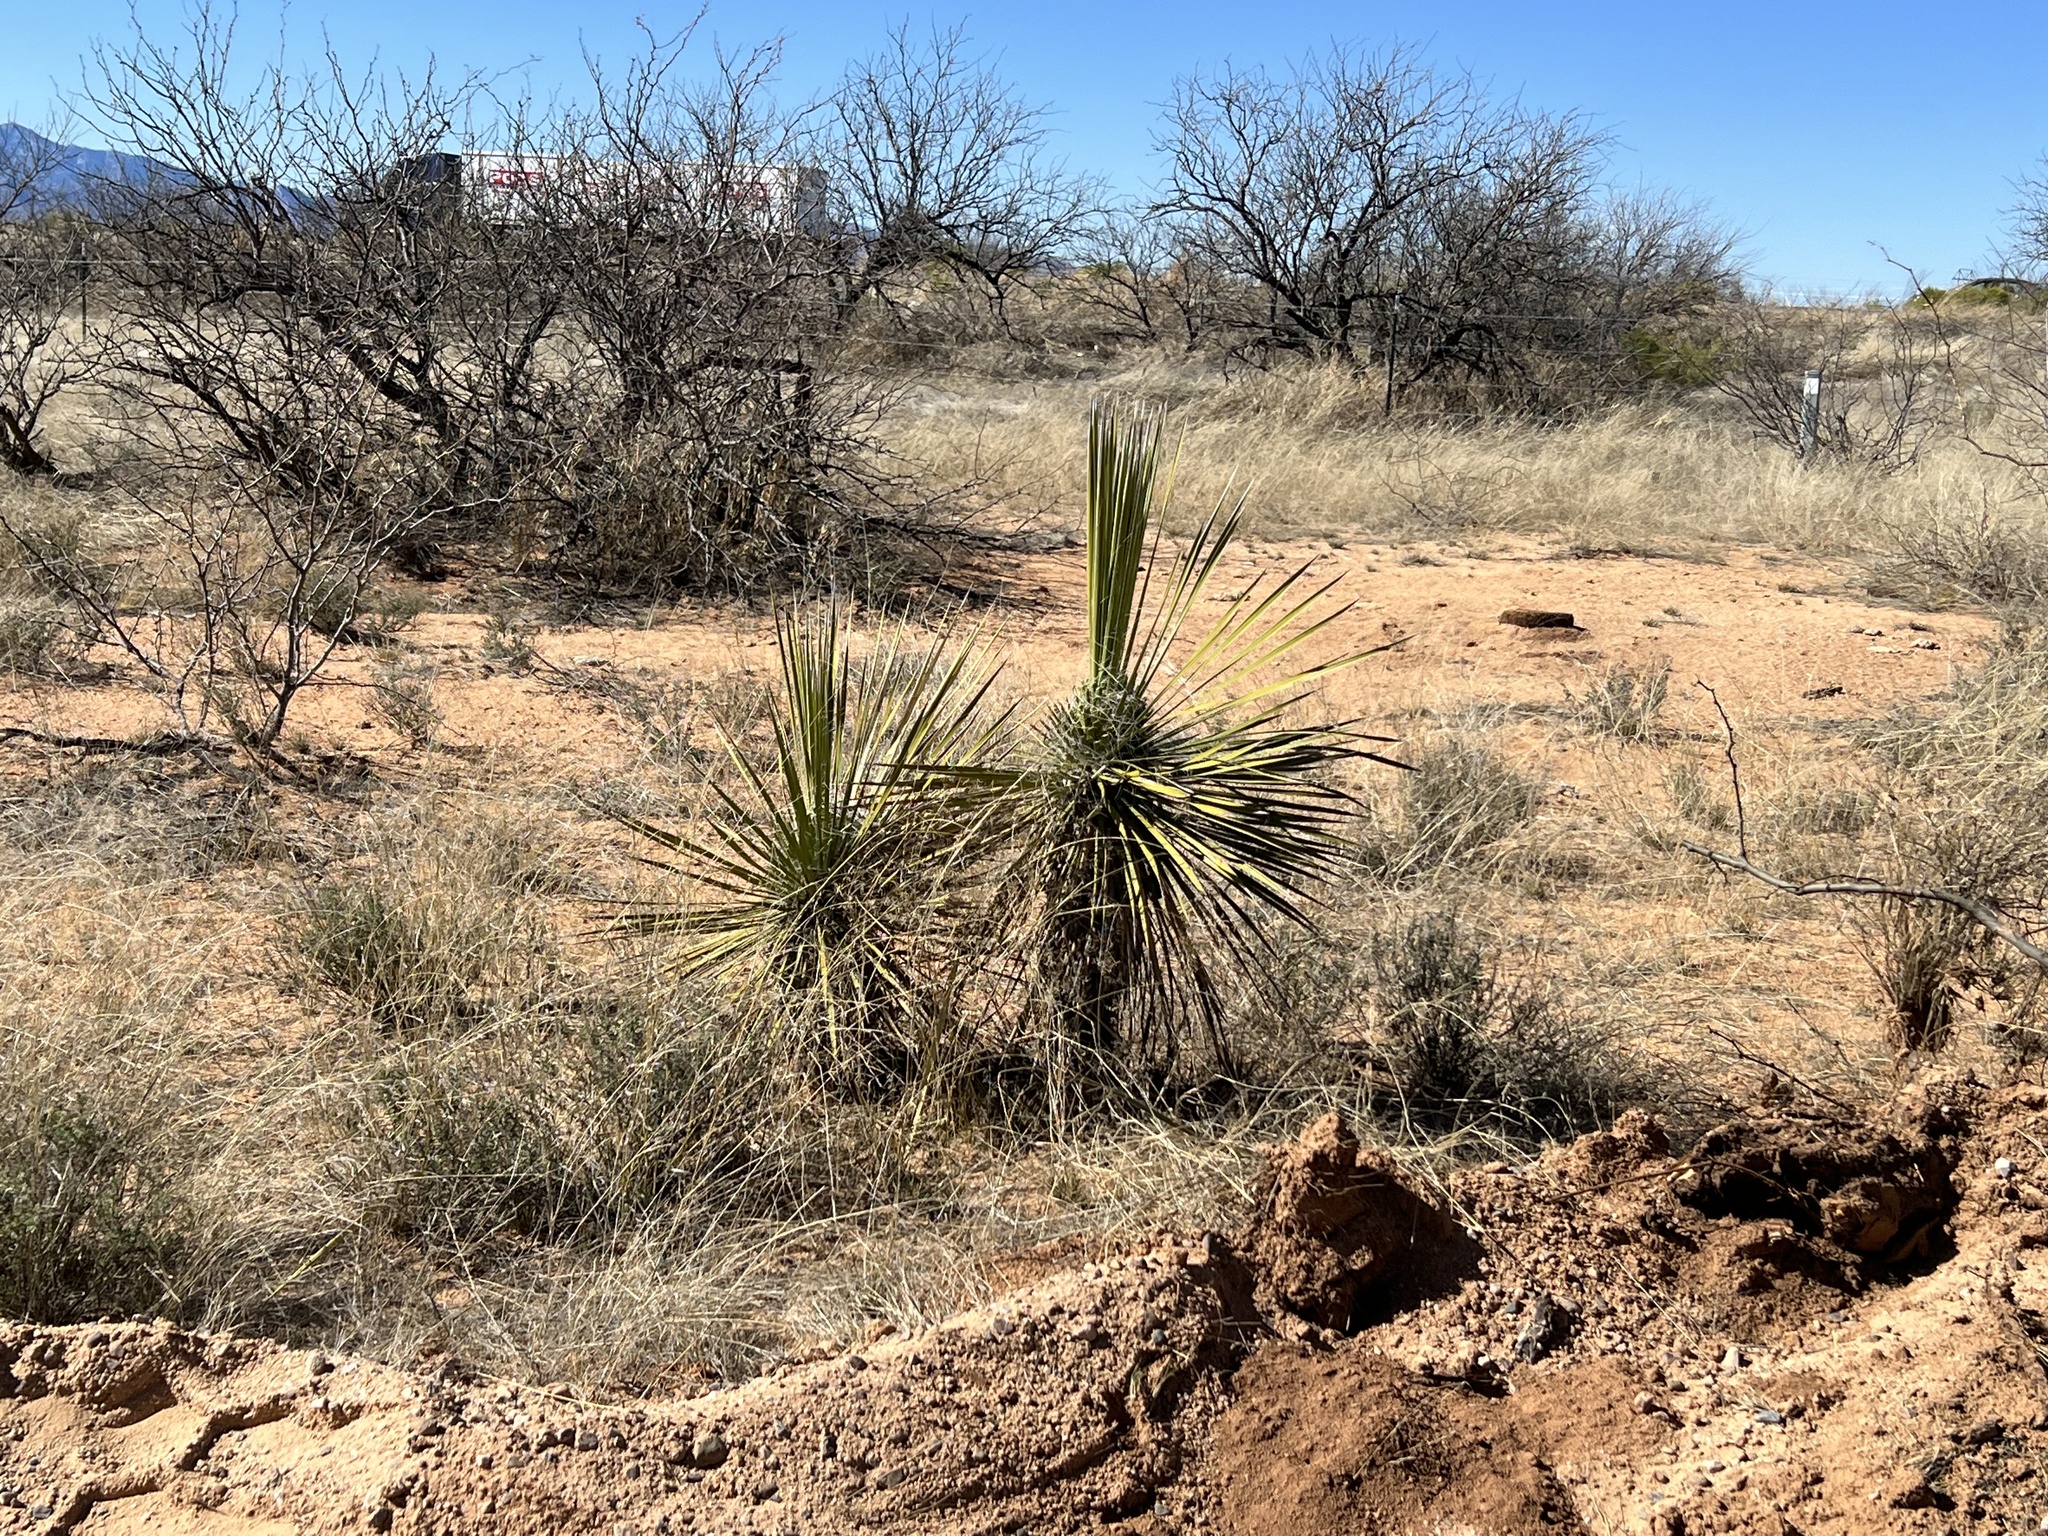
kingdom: Plantae
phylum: Tracheophyta
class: Liliopsida
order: Asparagales
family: Asparagaceae
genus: Yucca
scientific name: Yucca elata
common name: Palmella
